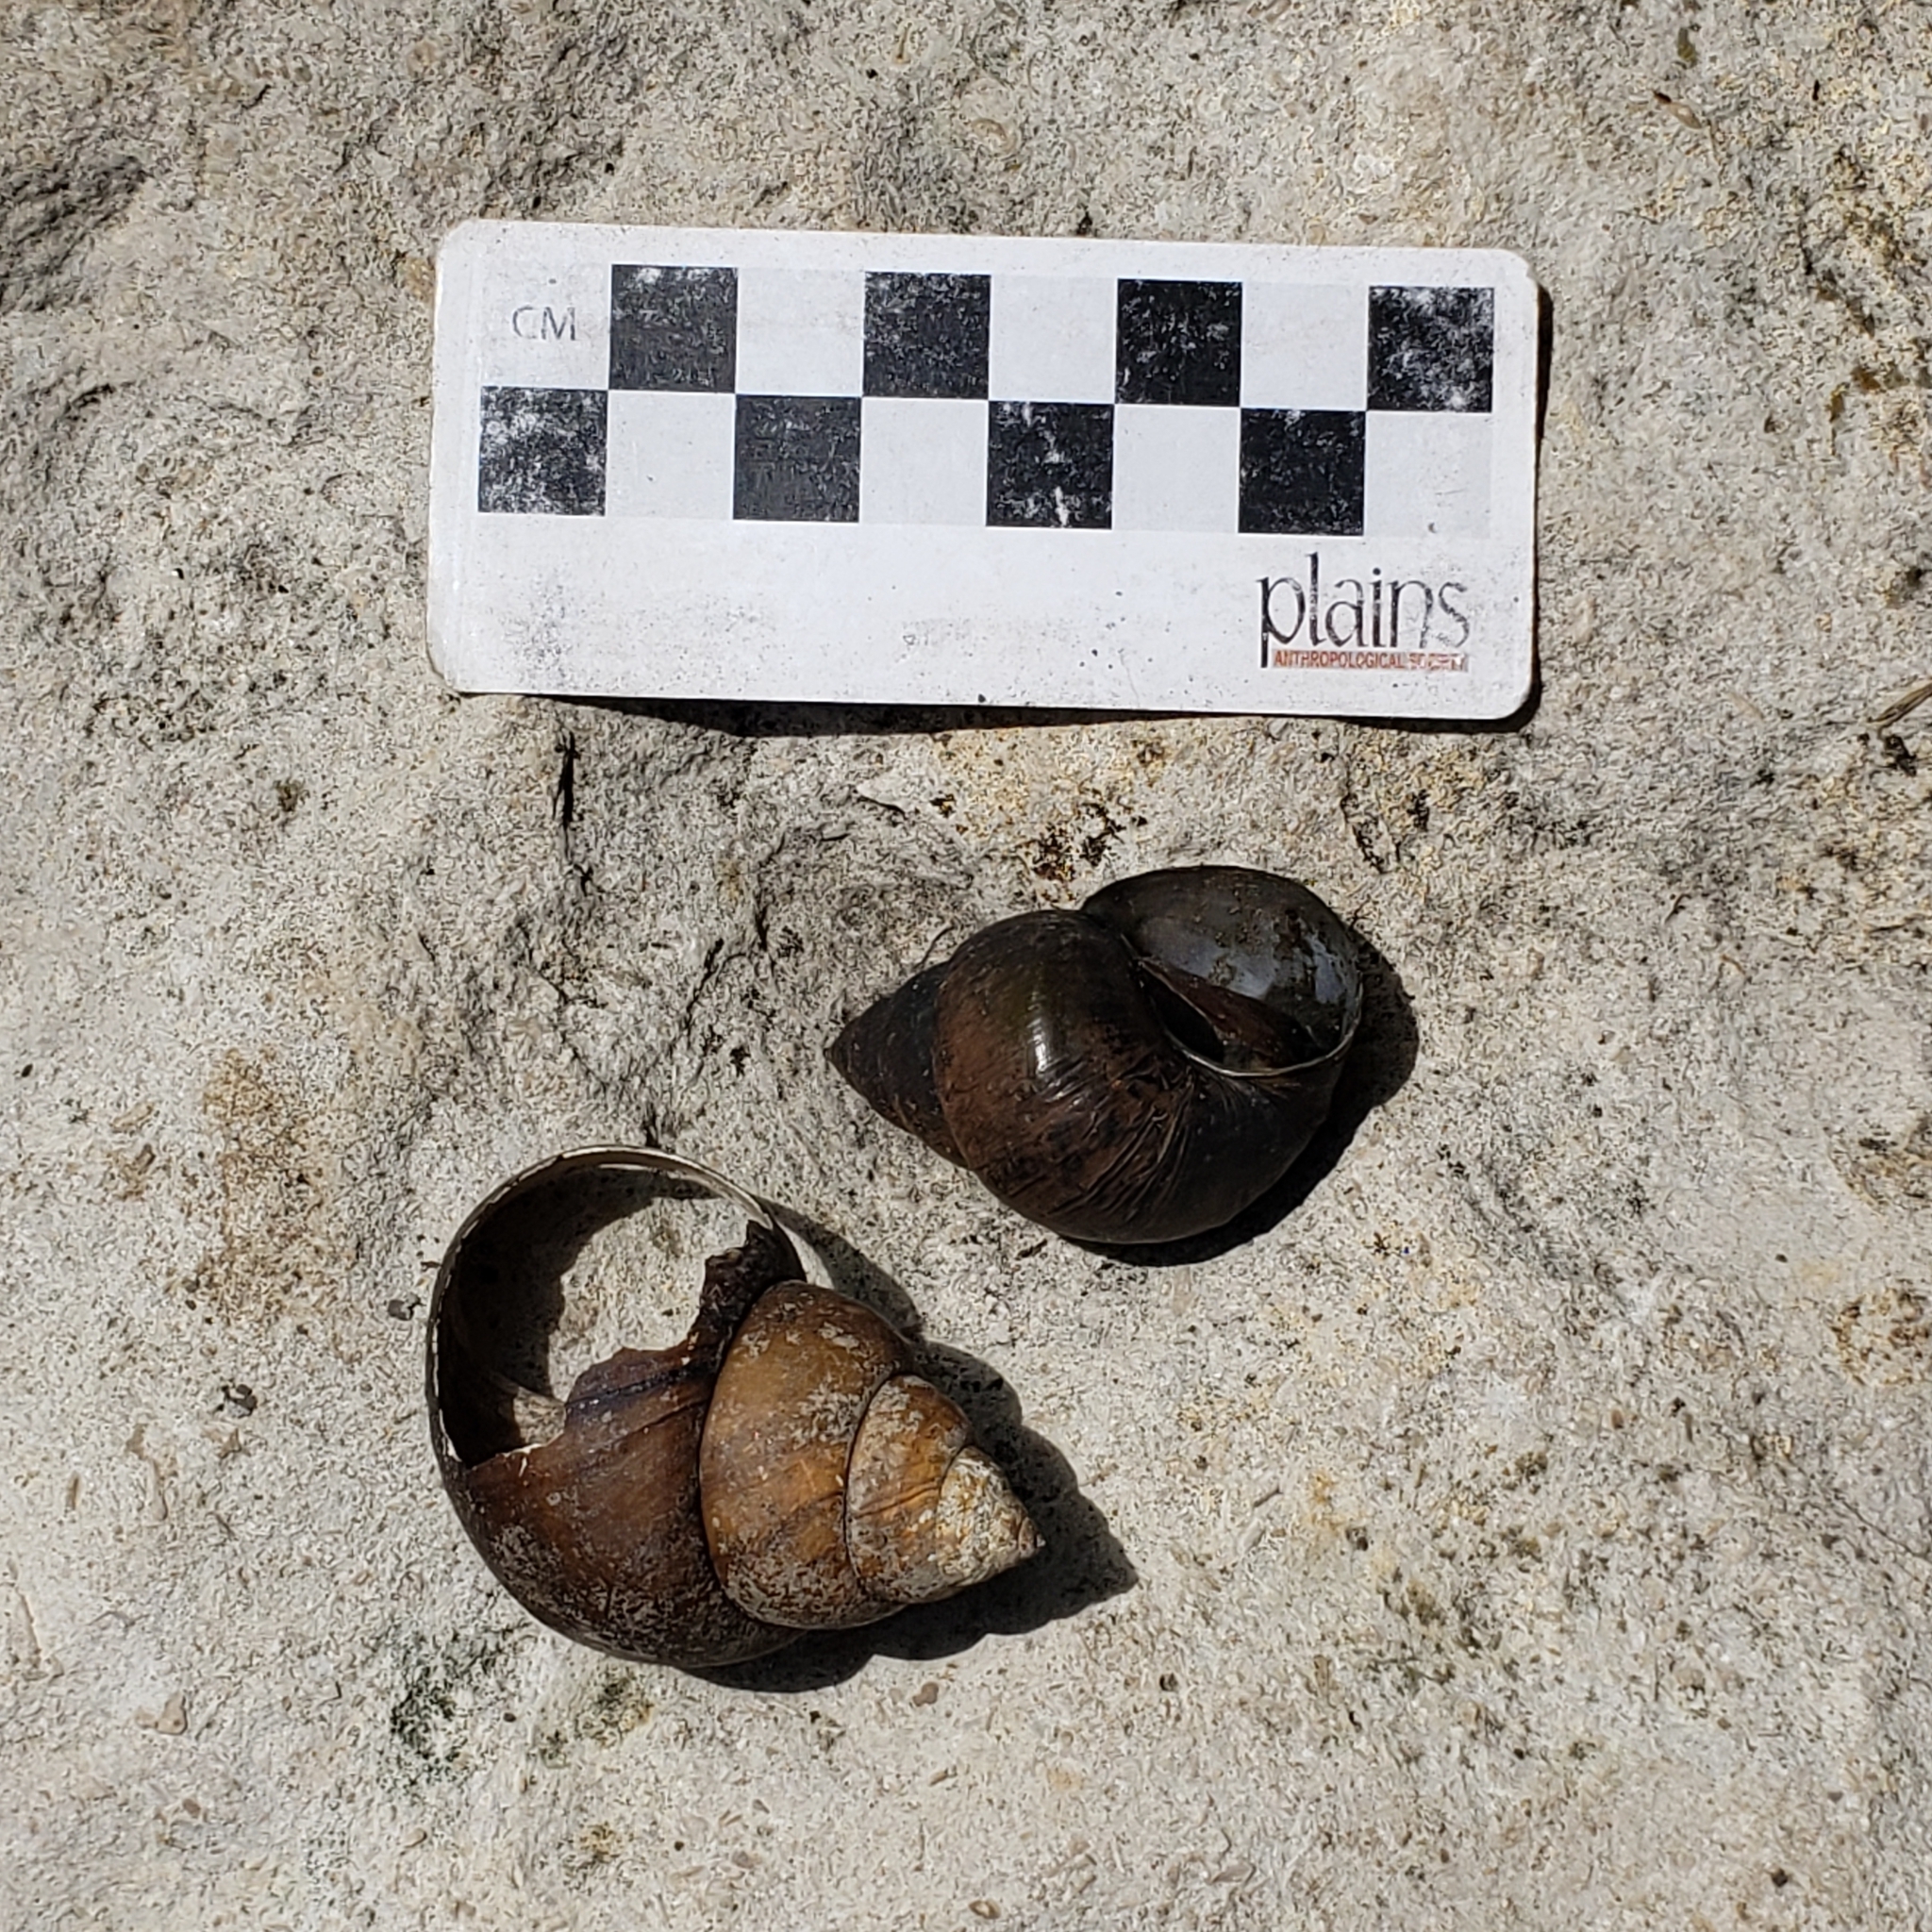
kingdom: Animalia
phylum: Mollusca
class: Gastropoda
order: Architaenioglossa
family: Viviparidae
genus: Cipangopaludina
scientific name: Cipangopaludina chinensis
